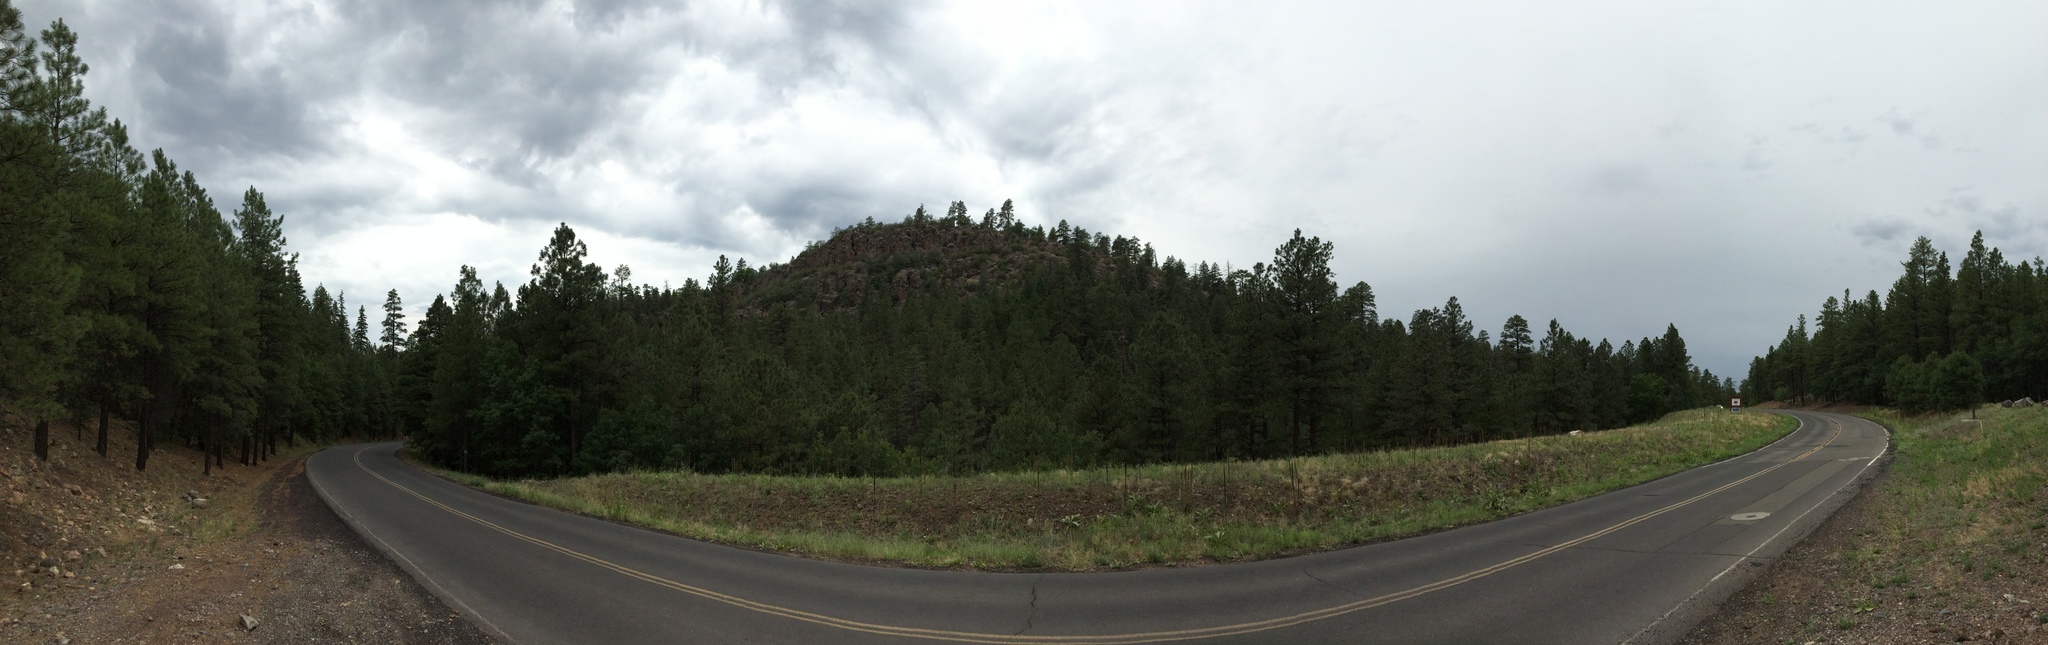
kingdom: Plantae
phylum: Tracheophyta
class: Pinopsida
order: Pinales
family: Pinaceae
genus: Pinus
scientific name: Pinus ponderosa
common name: Western yellow-pine
